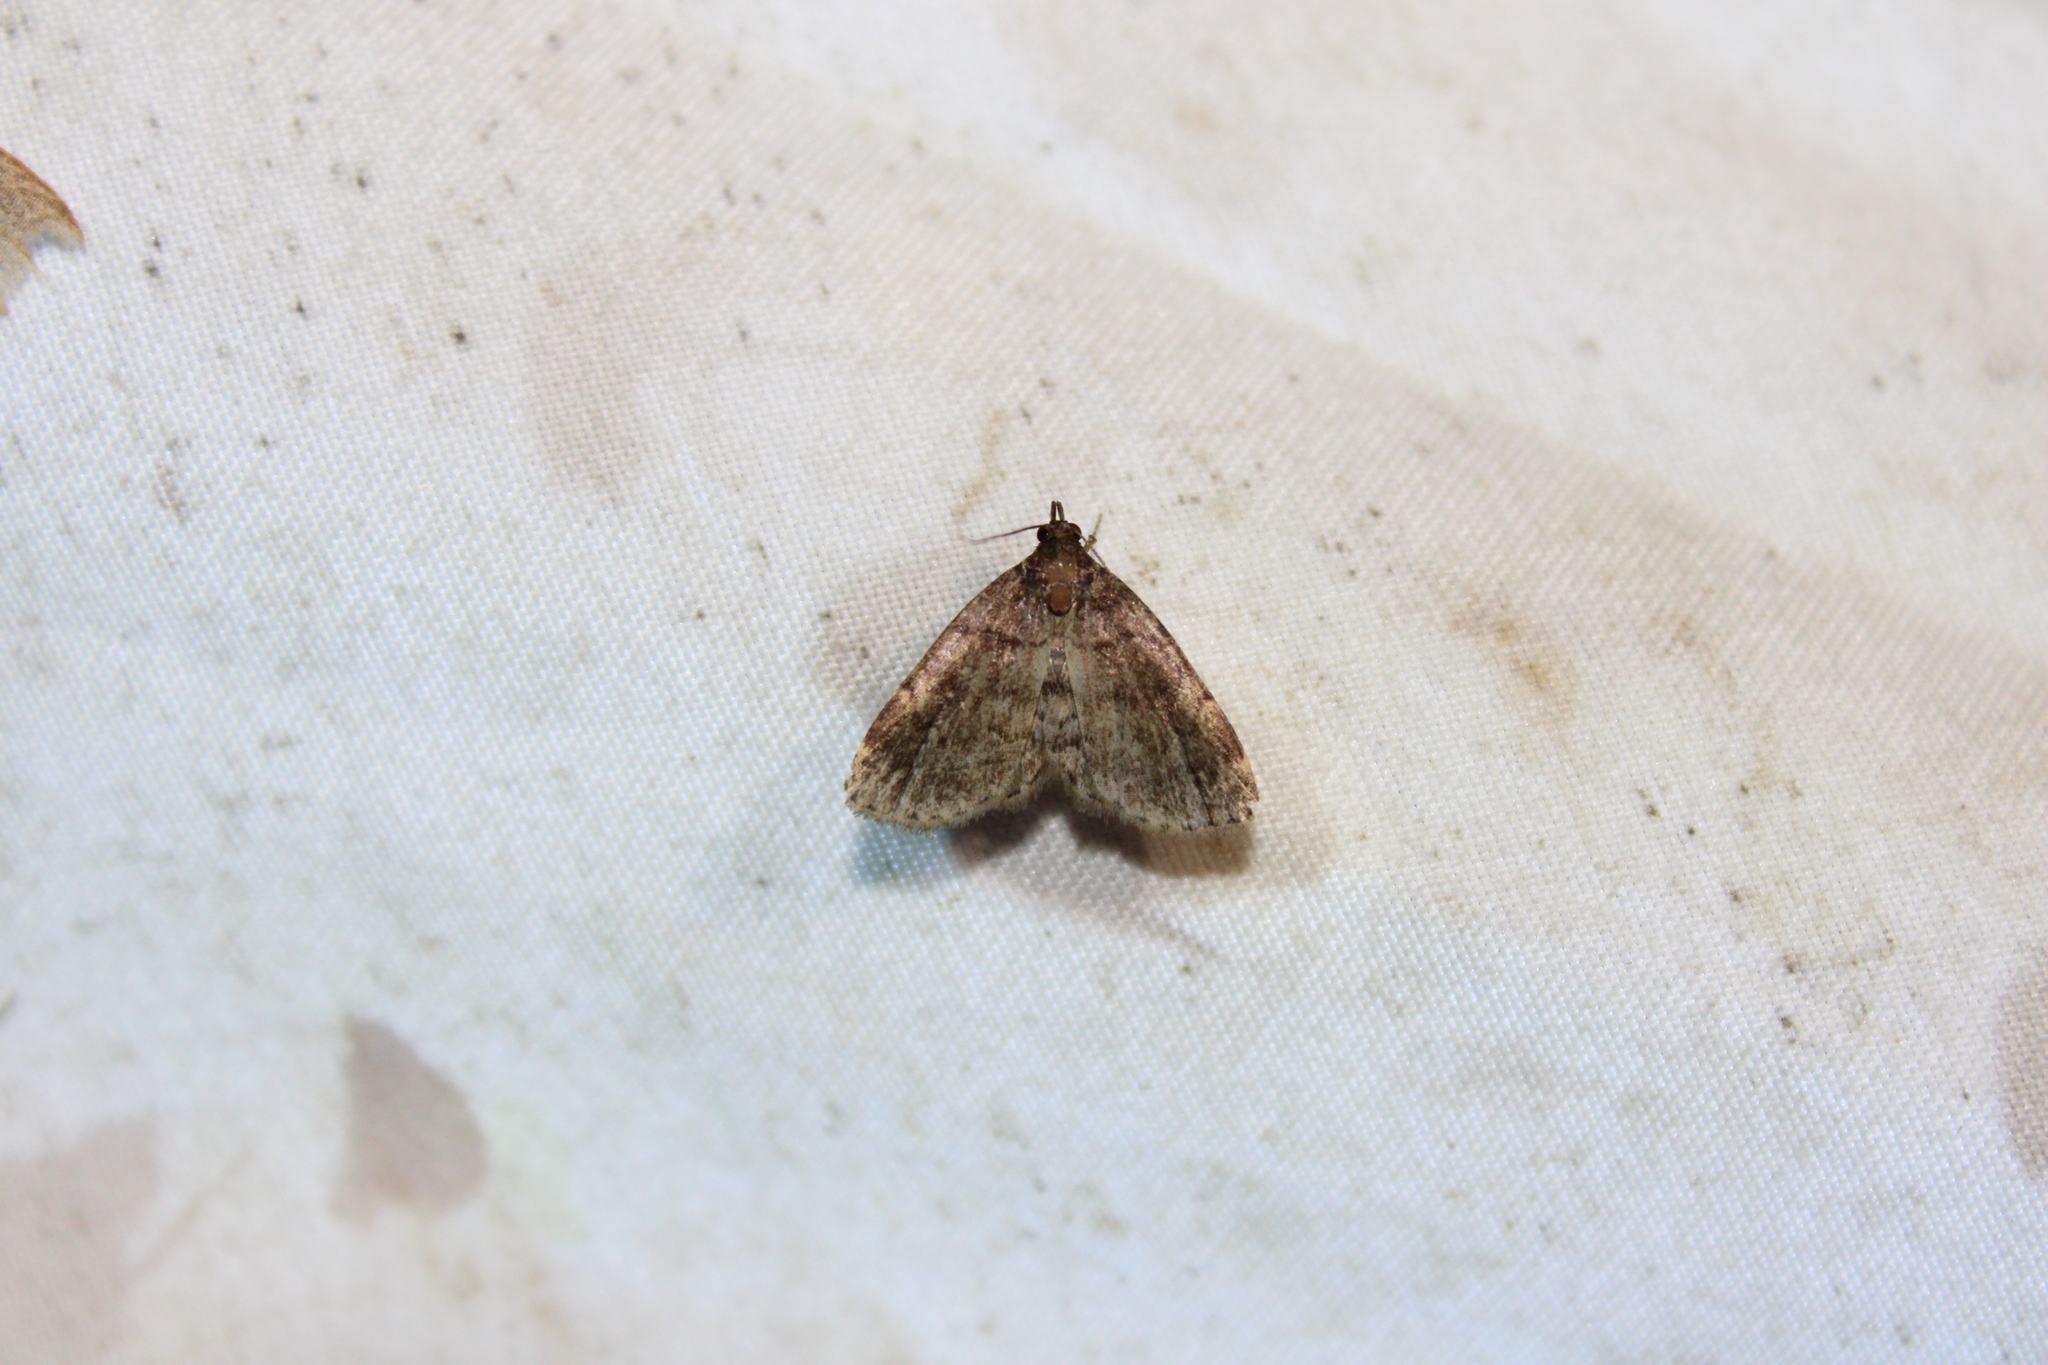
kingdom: Animalia
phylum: Arthropoda
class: Insecta
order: Lepidoptera
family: Erebidae
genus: Idia
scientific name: Idia forbesii
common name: Forbes' idia moth
